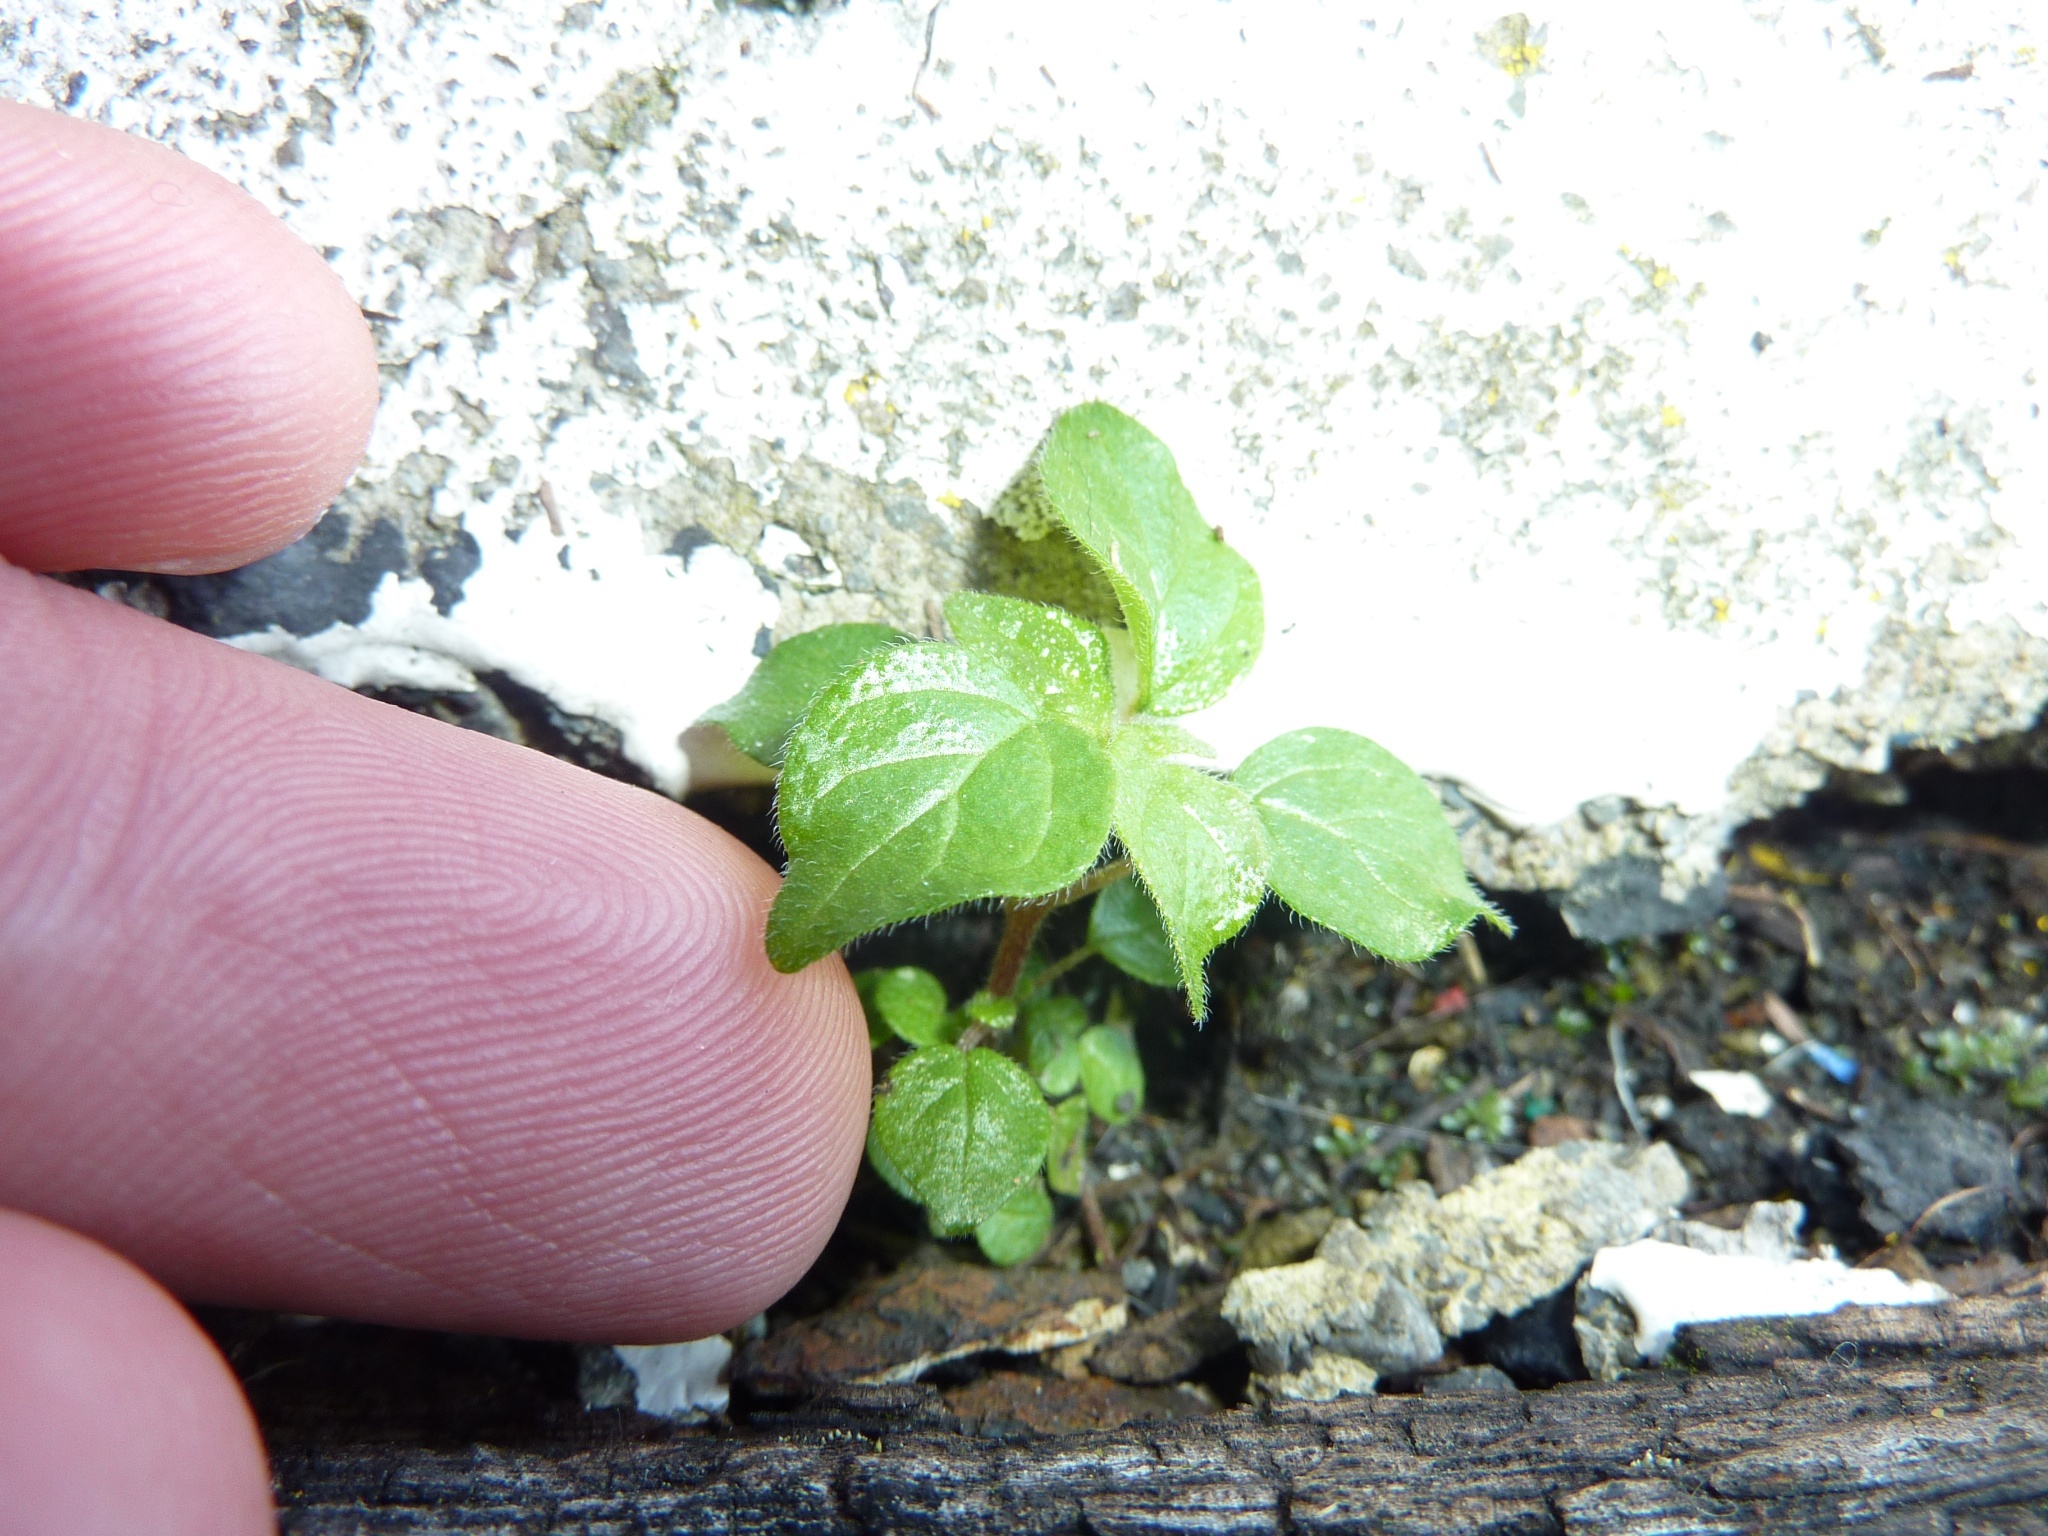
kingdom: Plantae
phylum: Tracheophyta
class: Magnoliopsida
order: Rosales
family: Urticaceae
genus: Parietaria
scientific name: Parietaria judaica
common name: Pellitory-of-the-wall
